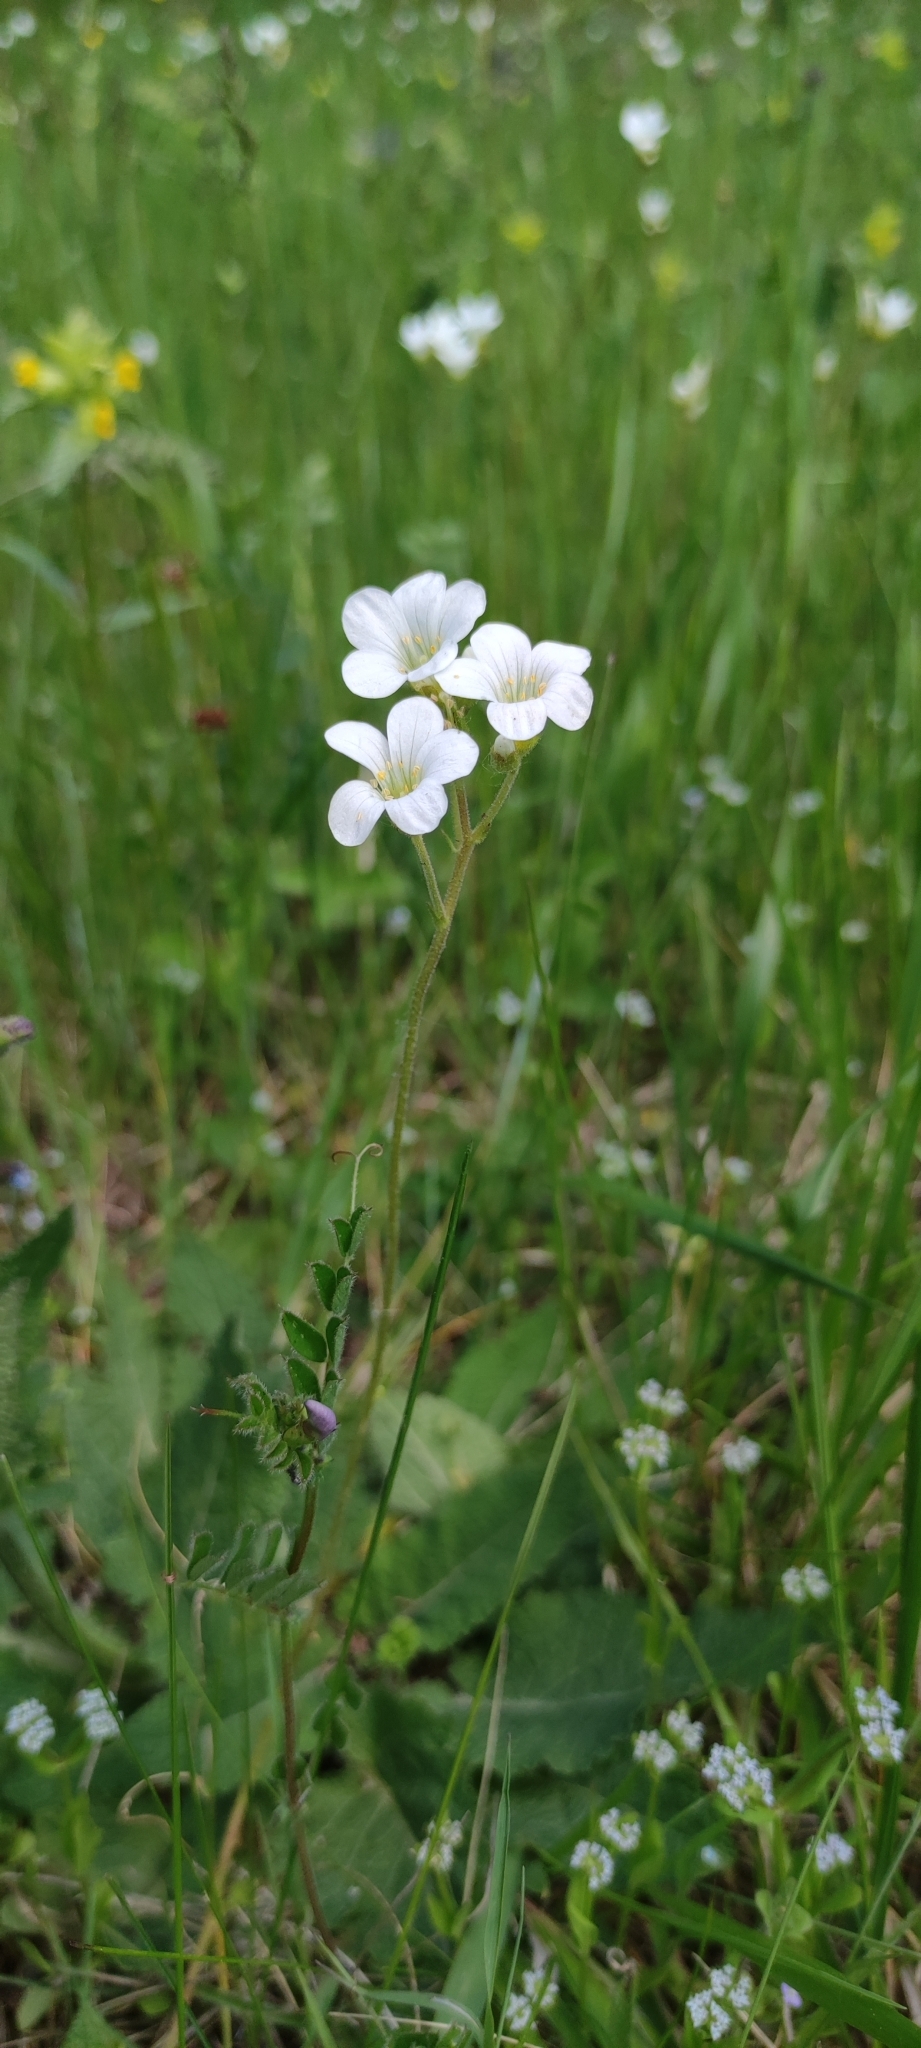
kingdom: Plantae
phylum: Tracheophyta
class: Magnoliopsida
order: Saxifragales
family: Saxifragaceae
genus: Saxifraga
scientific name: Saxifraga granulata
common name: Meadow saxifrage
